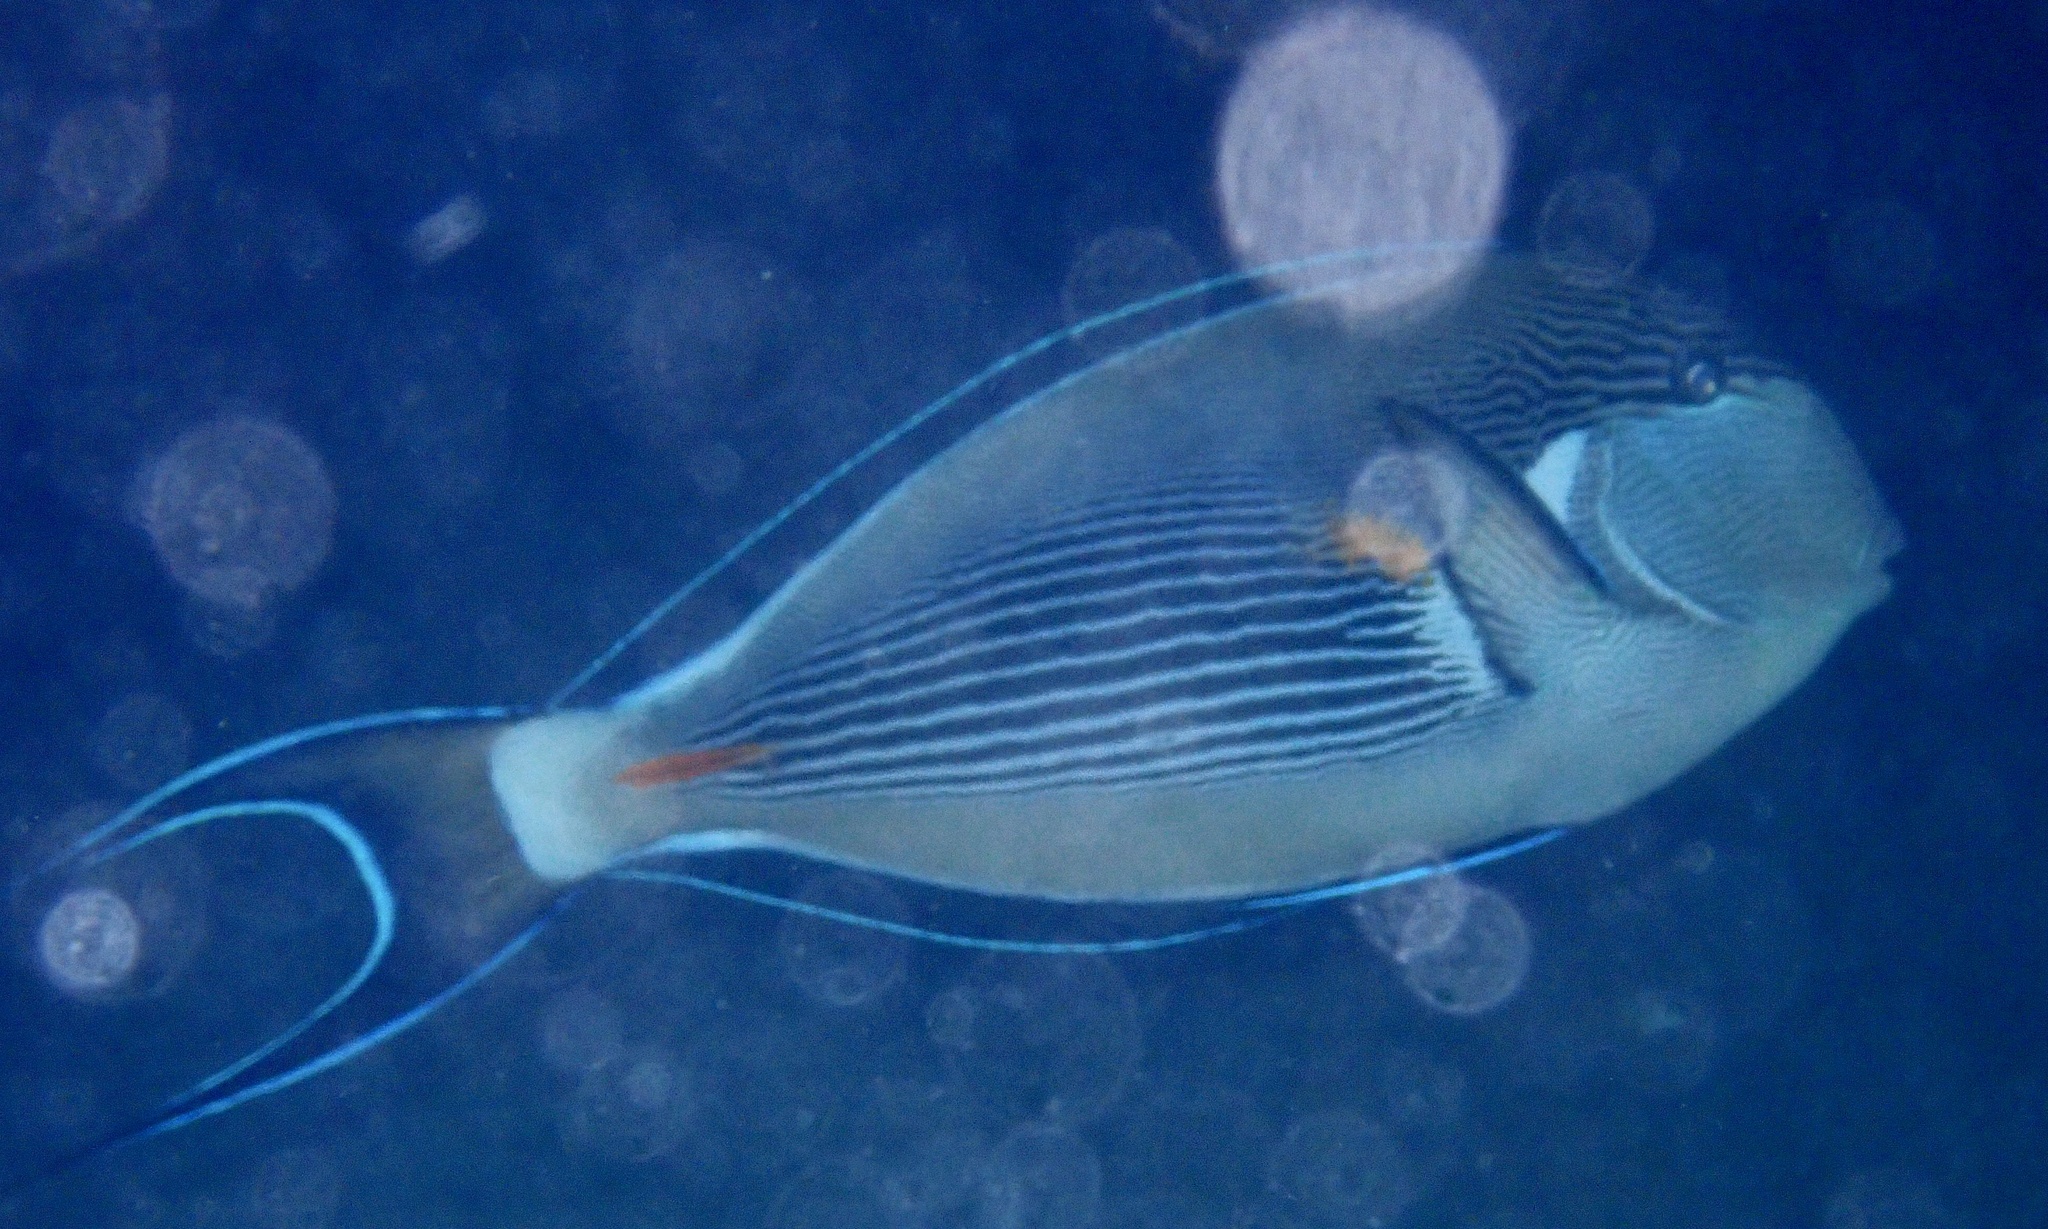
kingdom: Animalia
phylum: Chordata
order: Perciformes
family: Acanthuridae
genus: Acanthurus
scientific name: Acanthurus sohal
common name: Red sea surgeonfish
